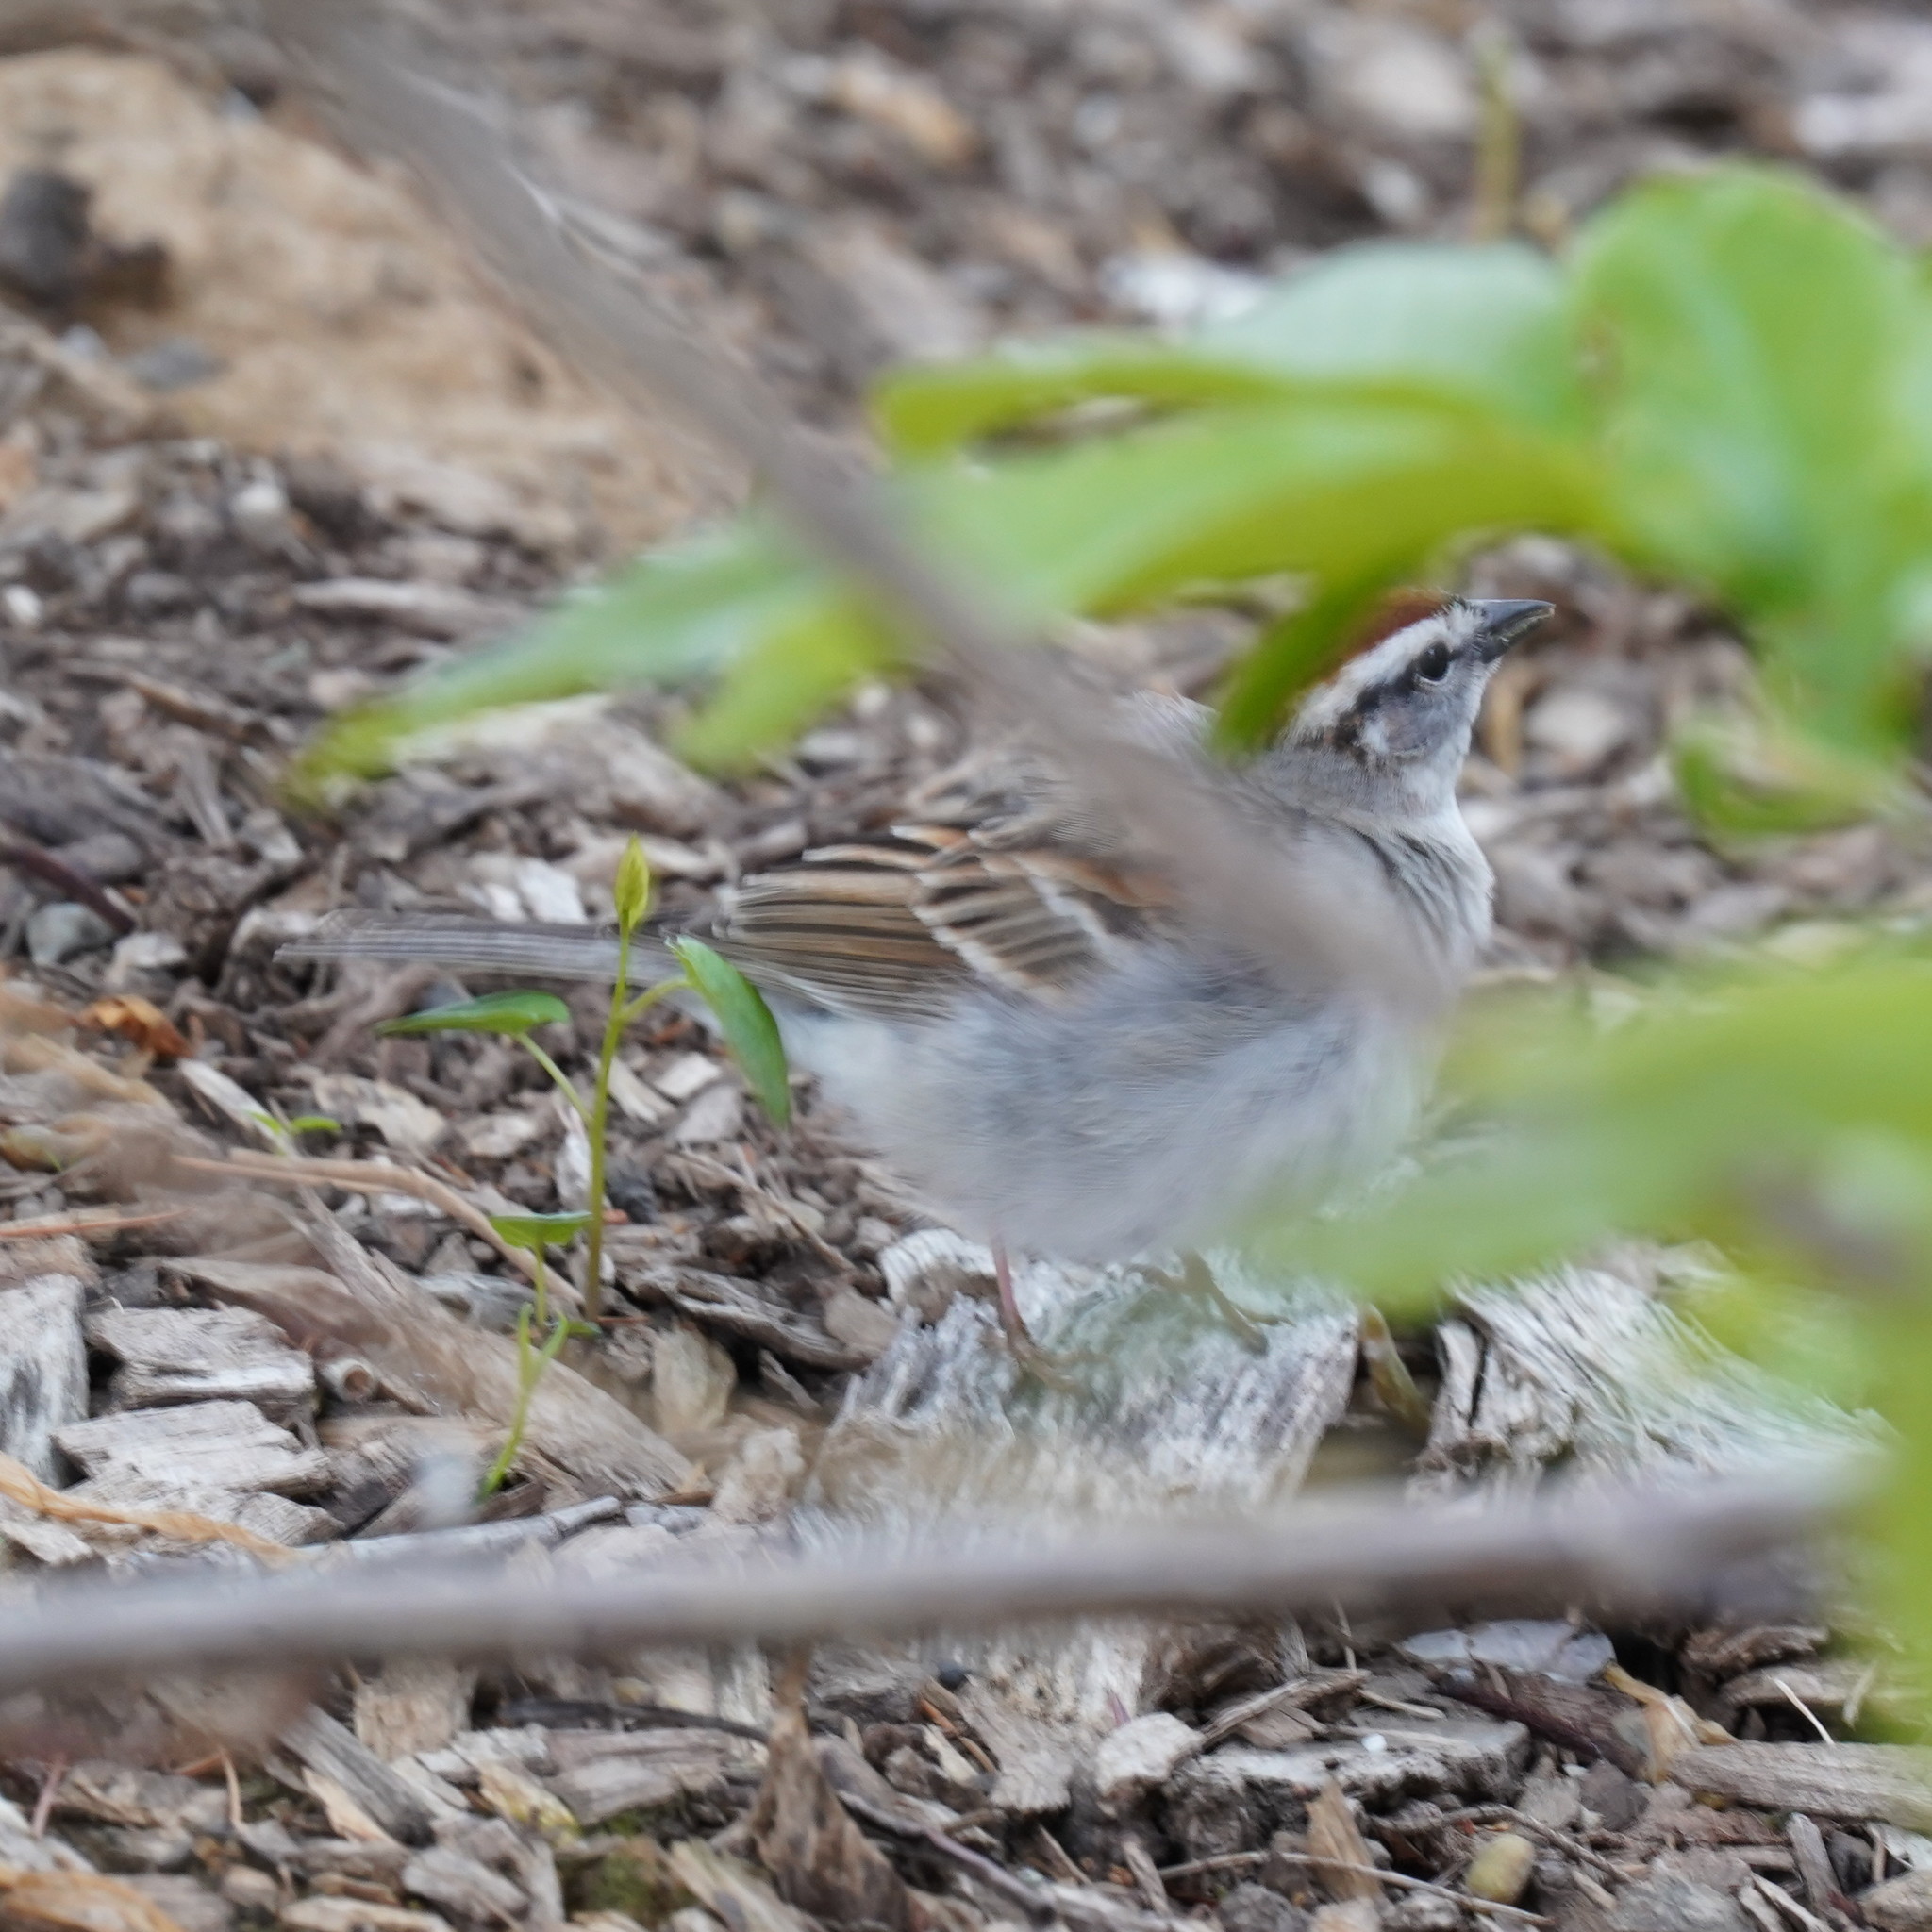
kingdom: Animalia
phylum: Chordata
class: Aves
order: Passeriformes
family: Passerellidae
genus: Spizella
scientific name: Spizella passerina
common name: Chipping sparrow
